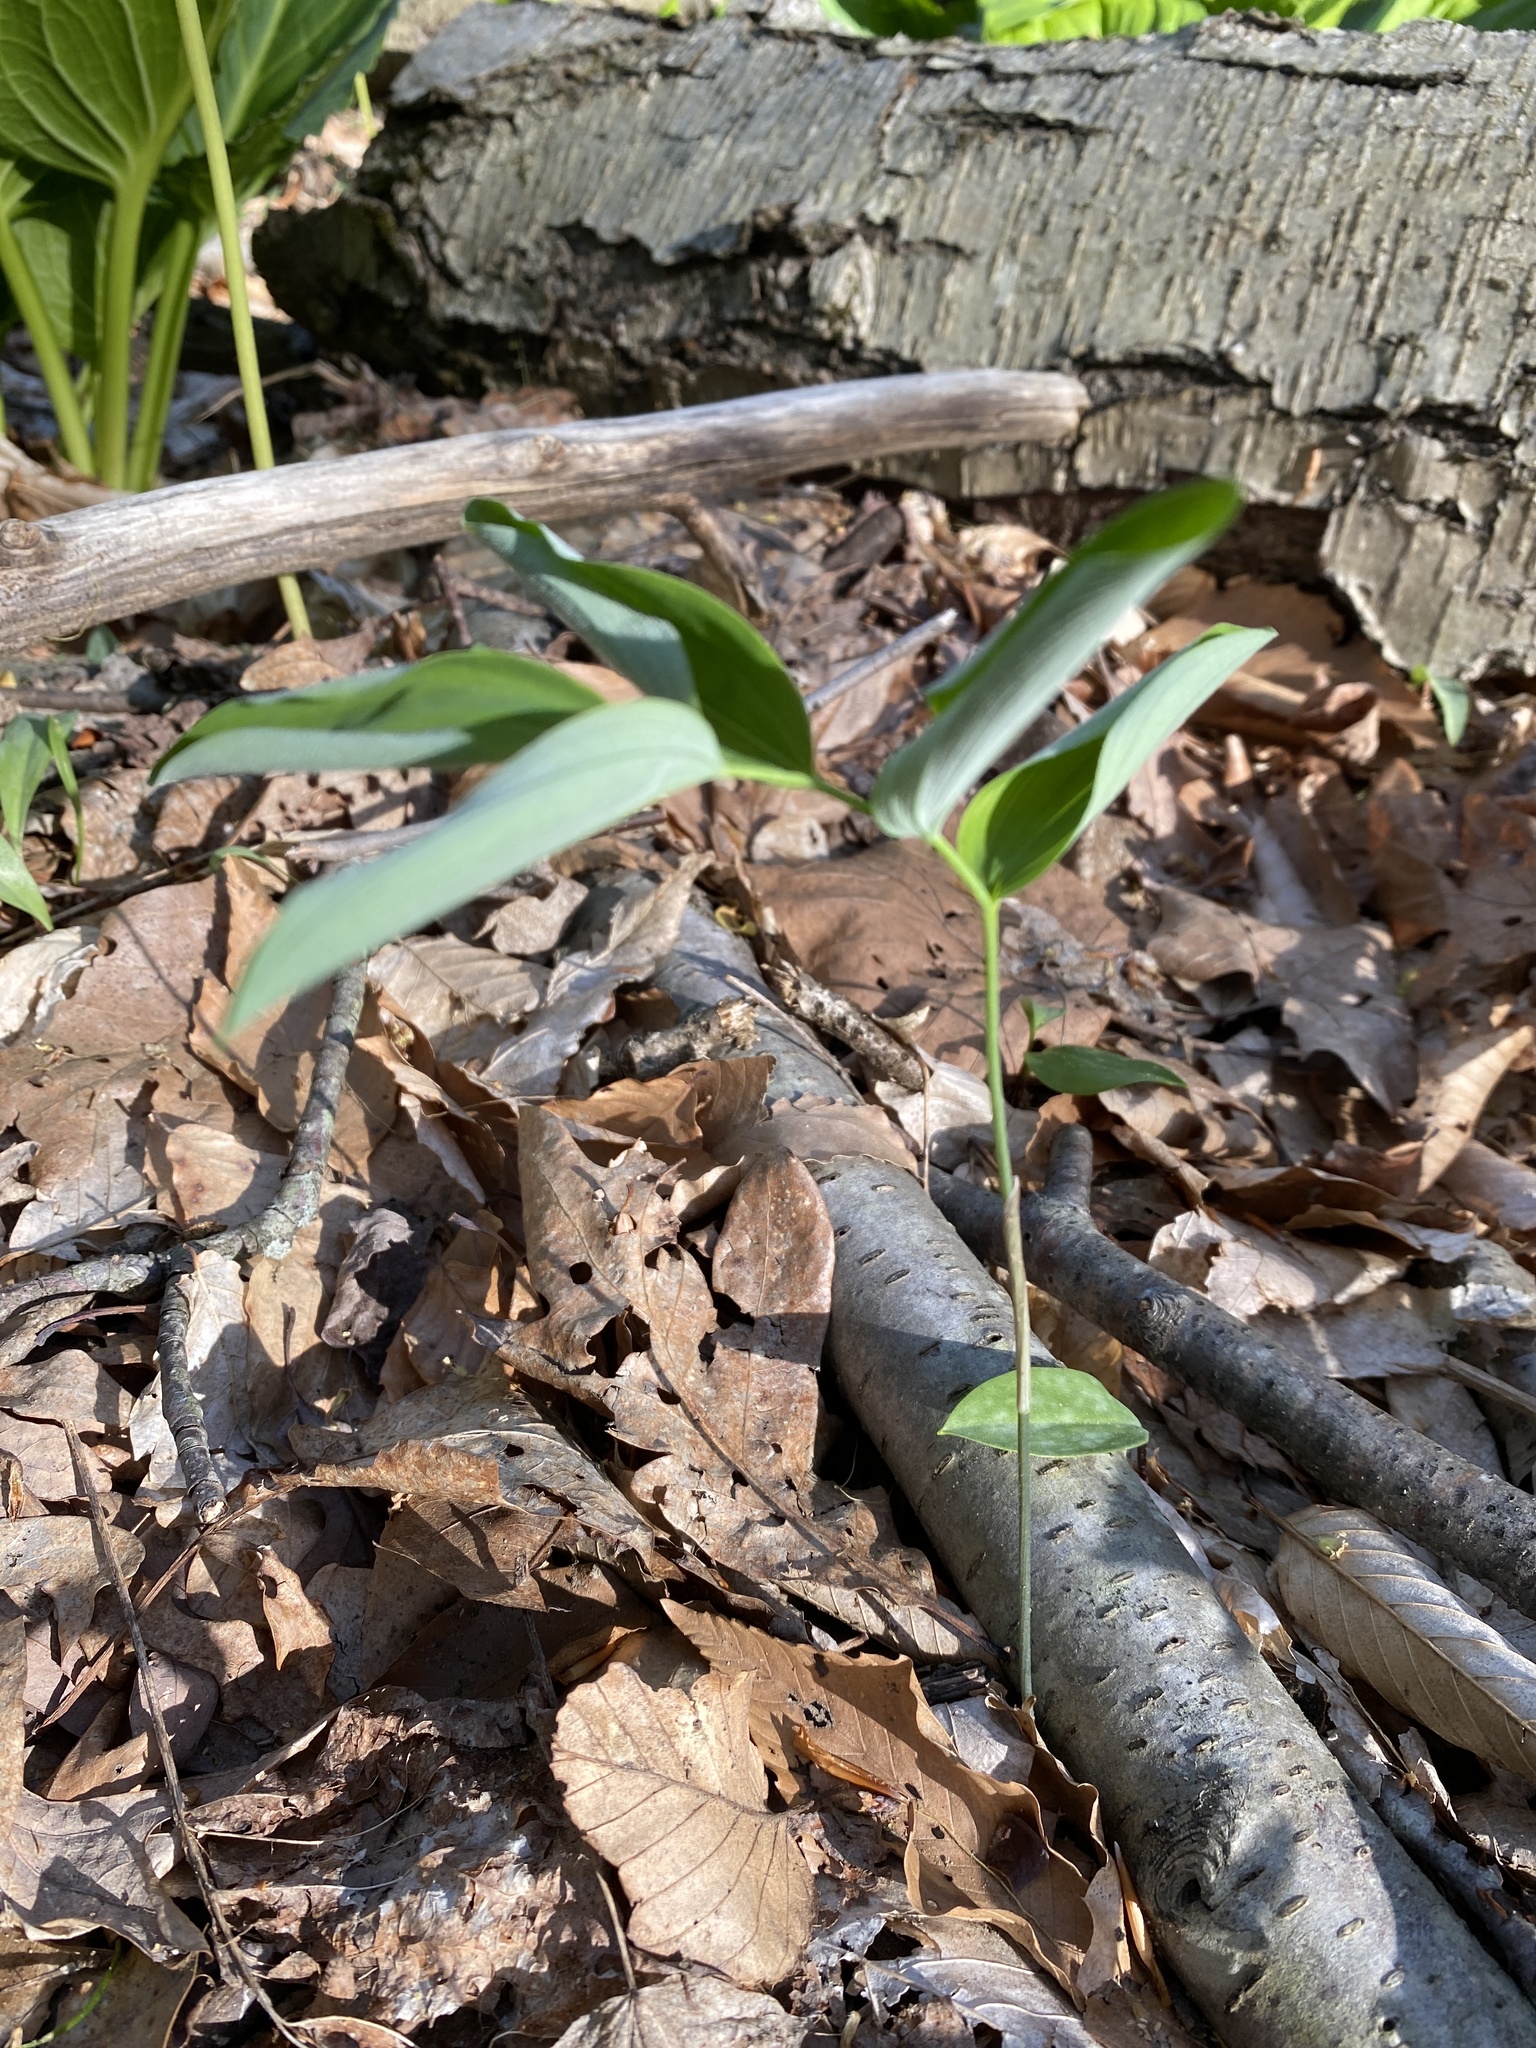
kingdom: Plantae
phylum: Tracheophyta
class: Liliopsida
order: Asparagales
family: Asparagaceae
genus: Polygonatum
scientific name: Polygonatum pubescens
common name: Downy solomon's seal
